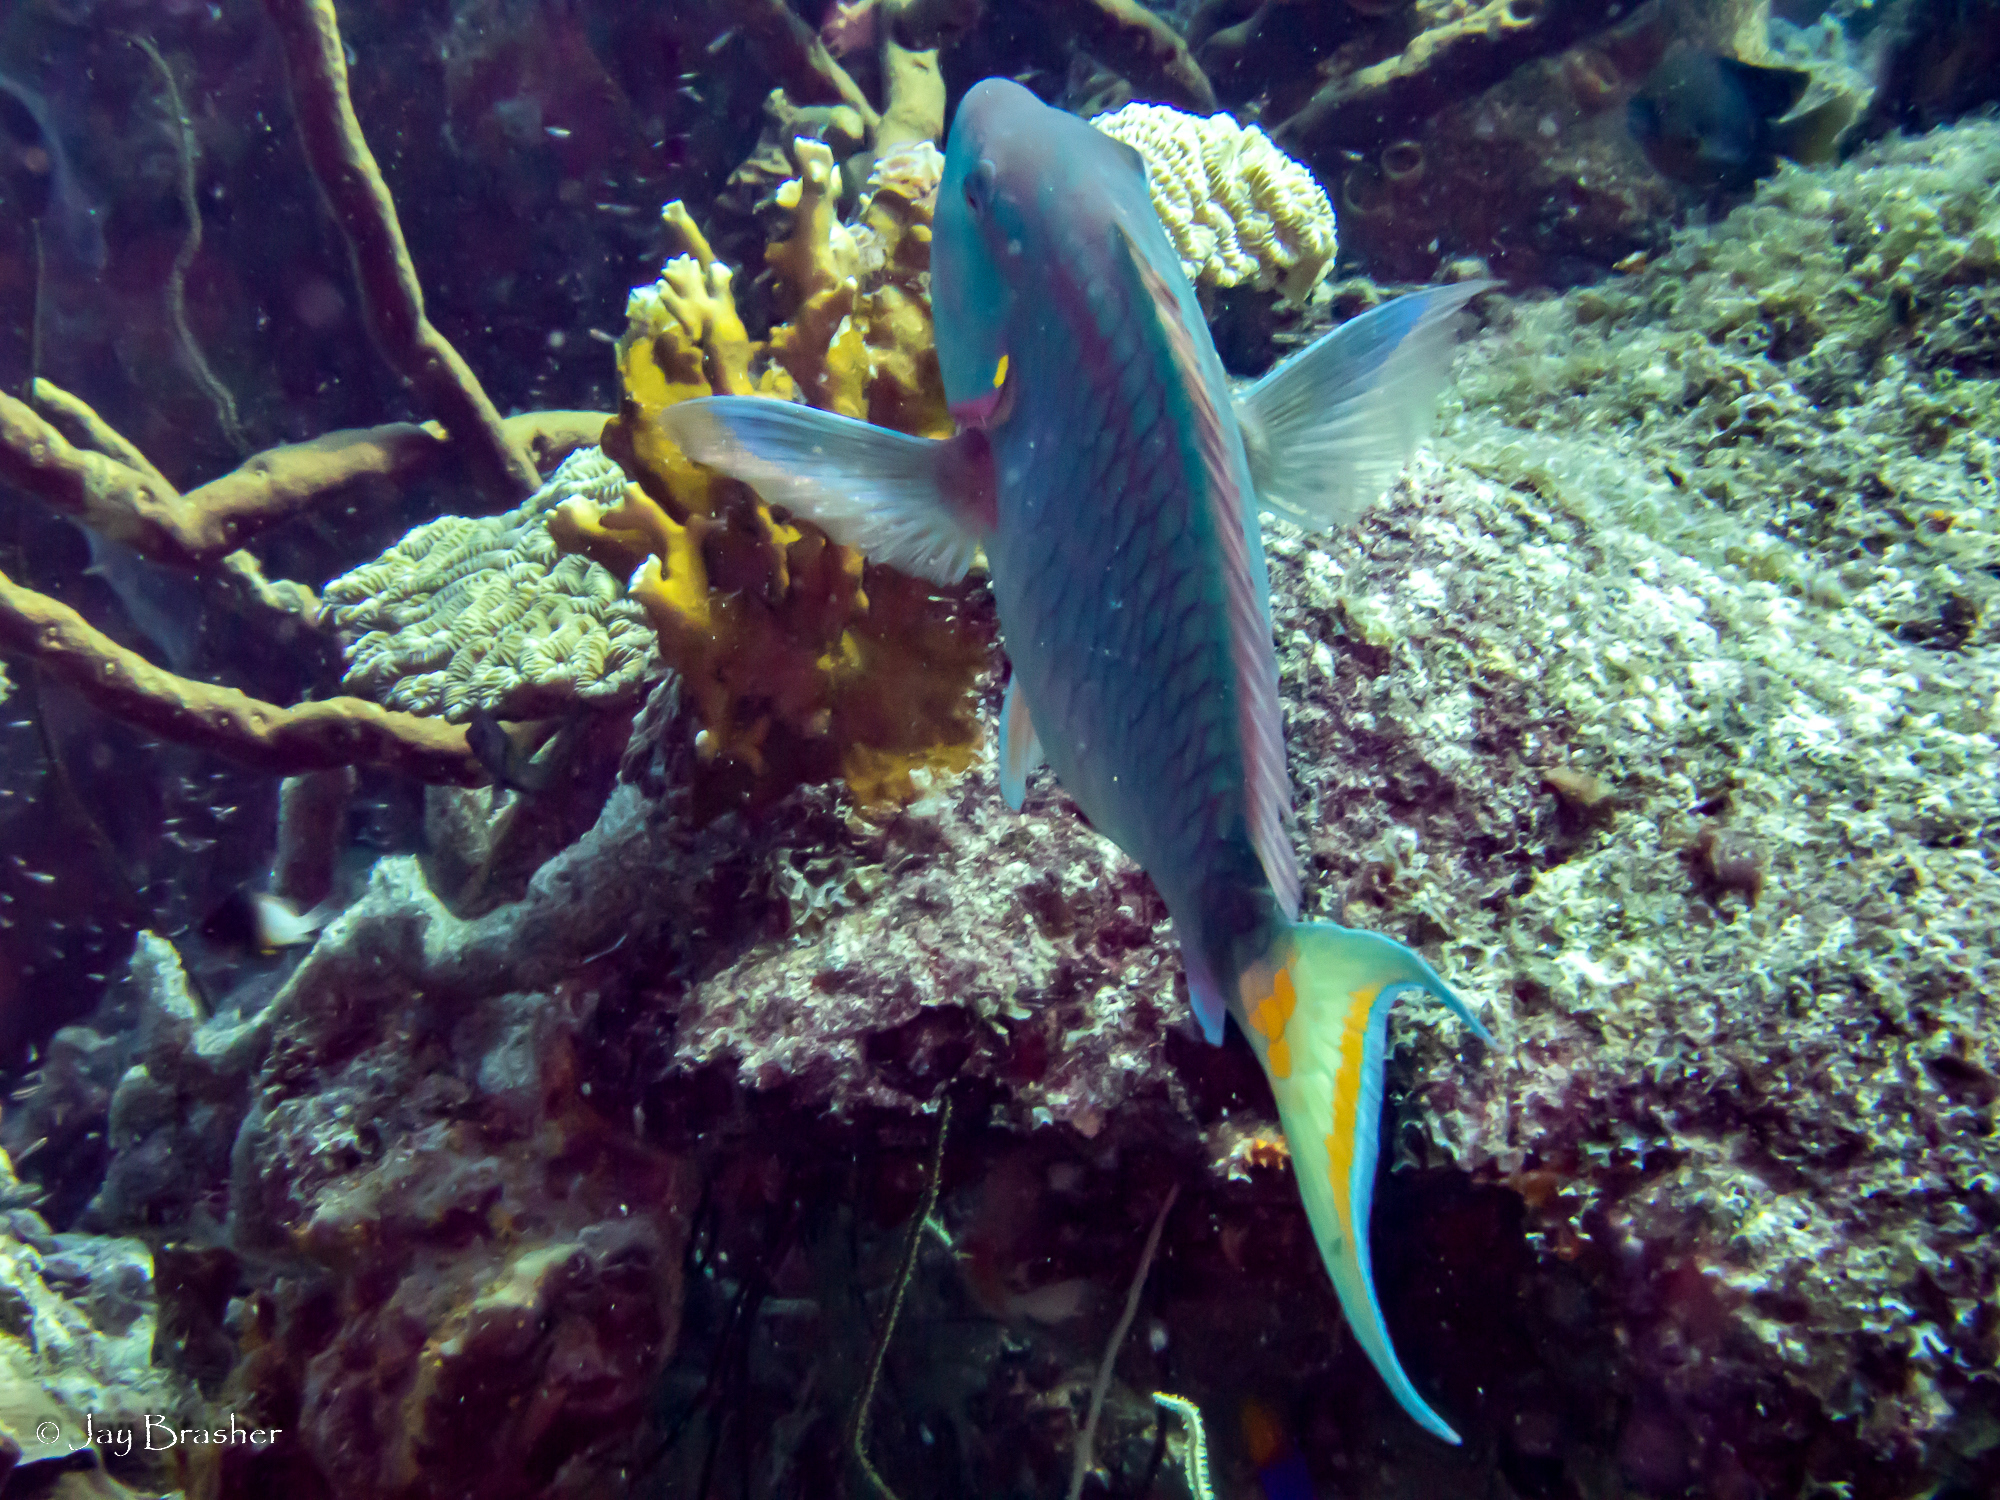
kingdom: Animalia
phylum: Chordata
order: Perciformes
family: Scaridae
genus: Sparisoma
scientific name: Sparisoma viride
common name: Stoplight parrotfish
